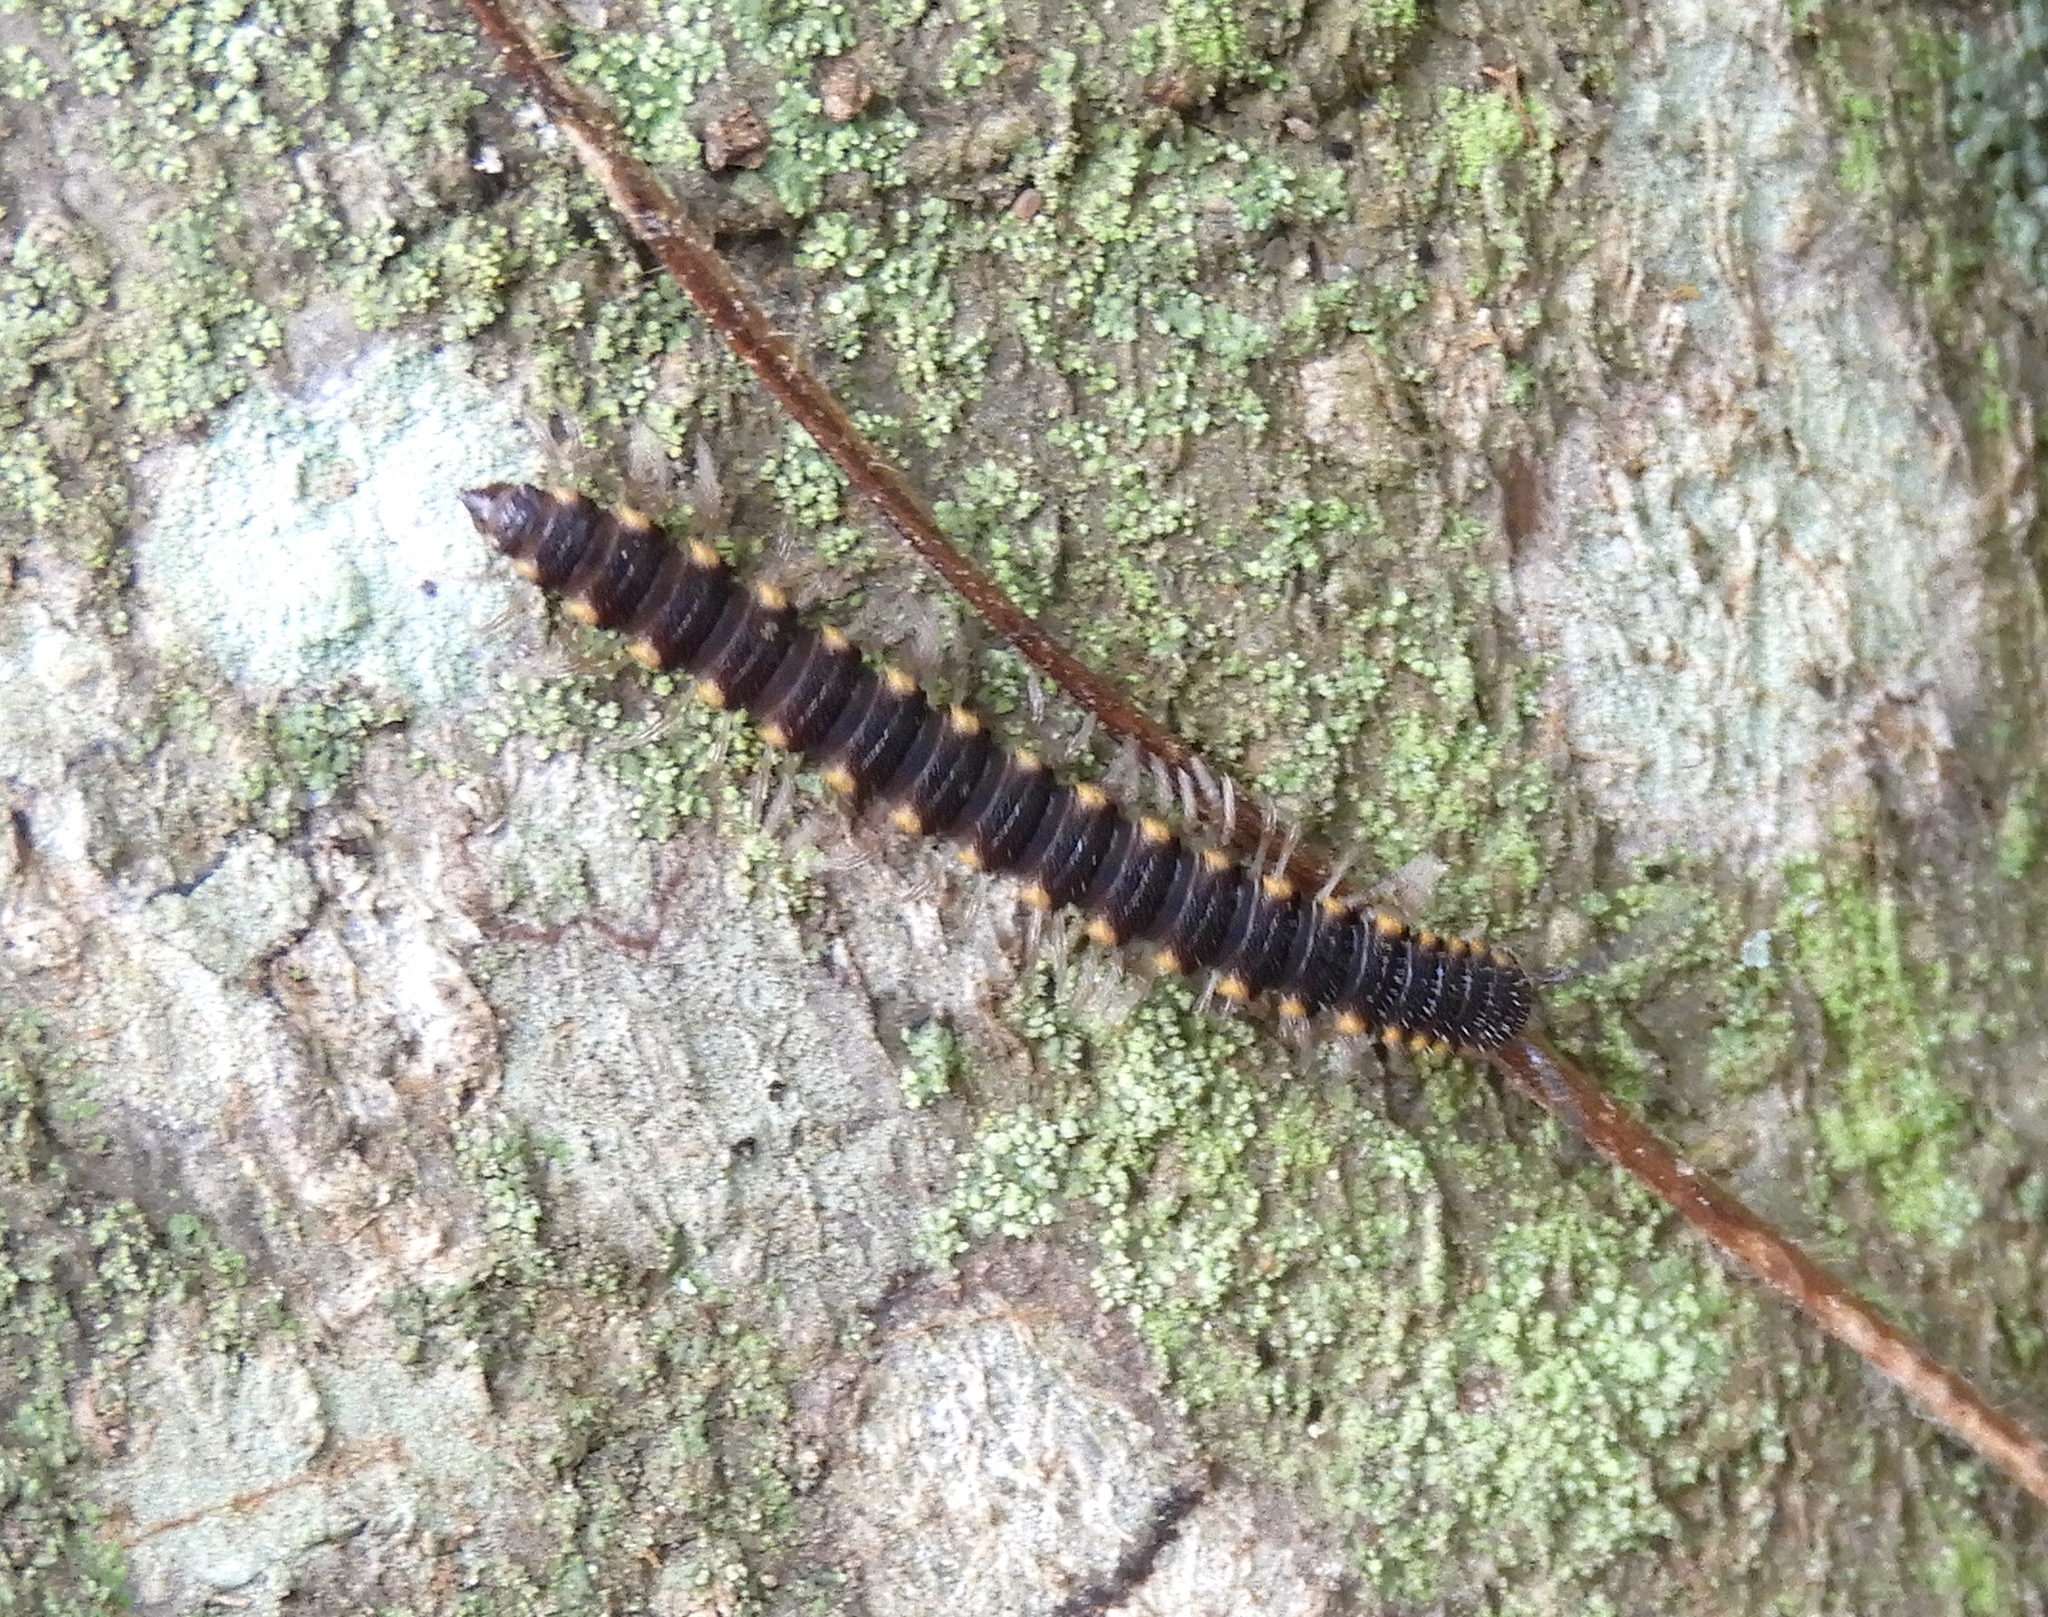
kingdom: Animalia
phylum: Arthropoda
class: Diplopoda
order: Polydesmida
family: Paradoxosomatidae
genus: Chondromorpha
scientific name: Chondromorpha xanthotricha
